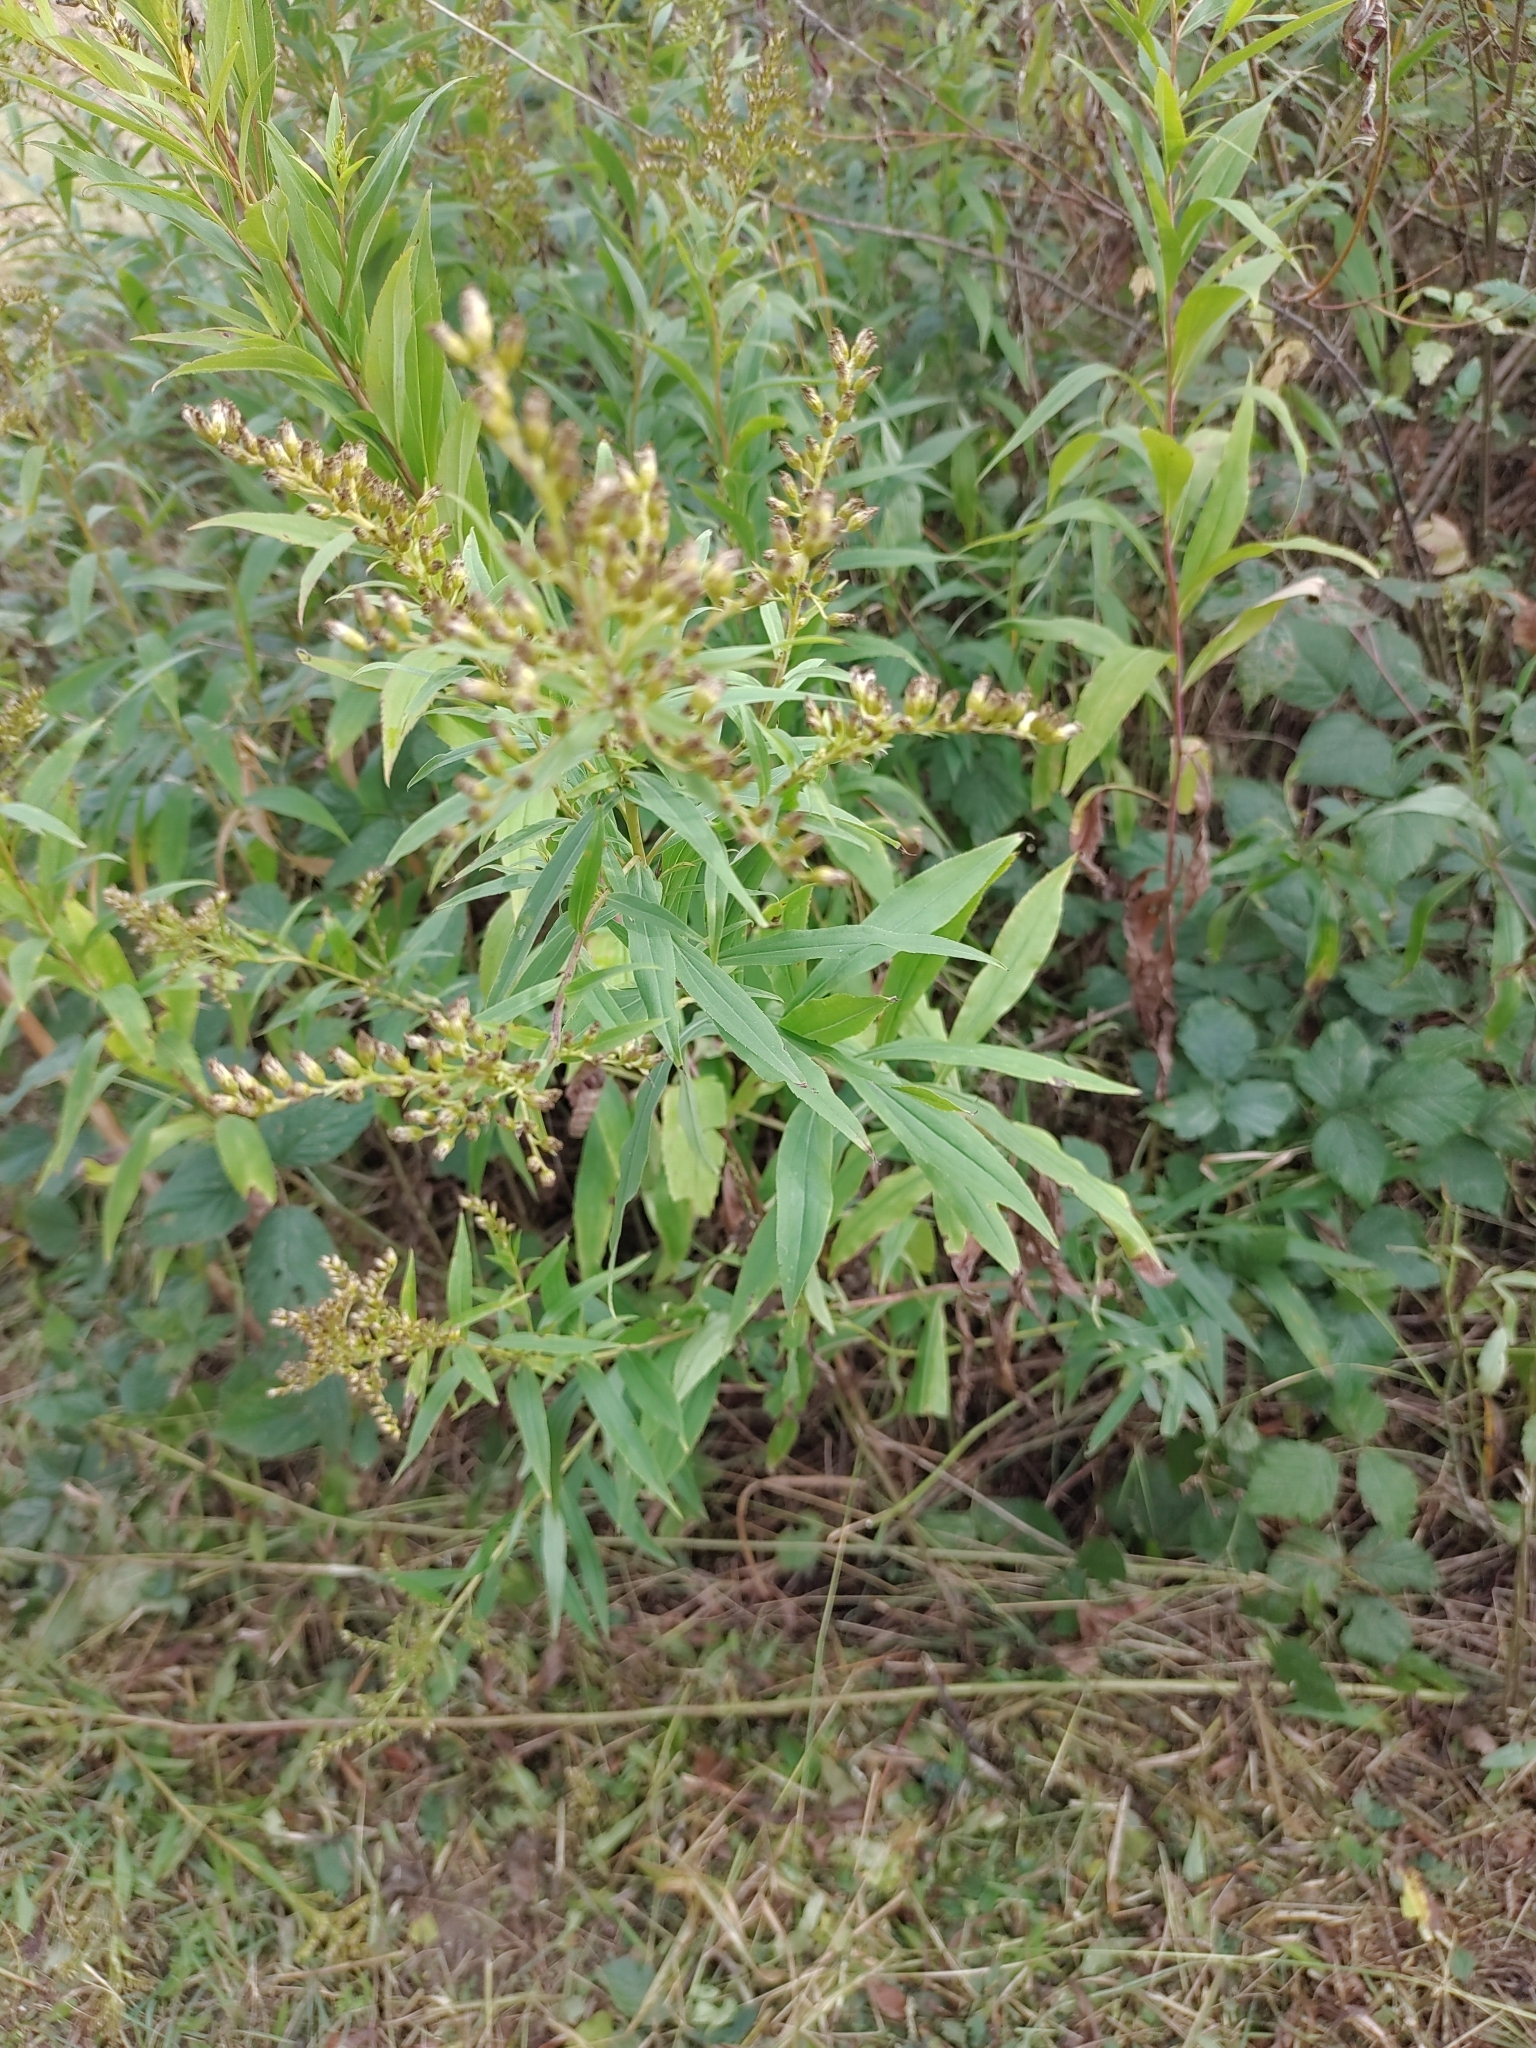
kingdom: Plantae
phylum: Tracheophyta
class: Magnoliopsida
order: Asterales
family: Asteraceae
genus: Solidago
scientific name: Solidago gigantea
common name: Giant goldenrod
